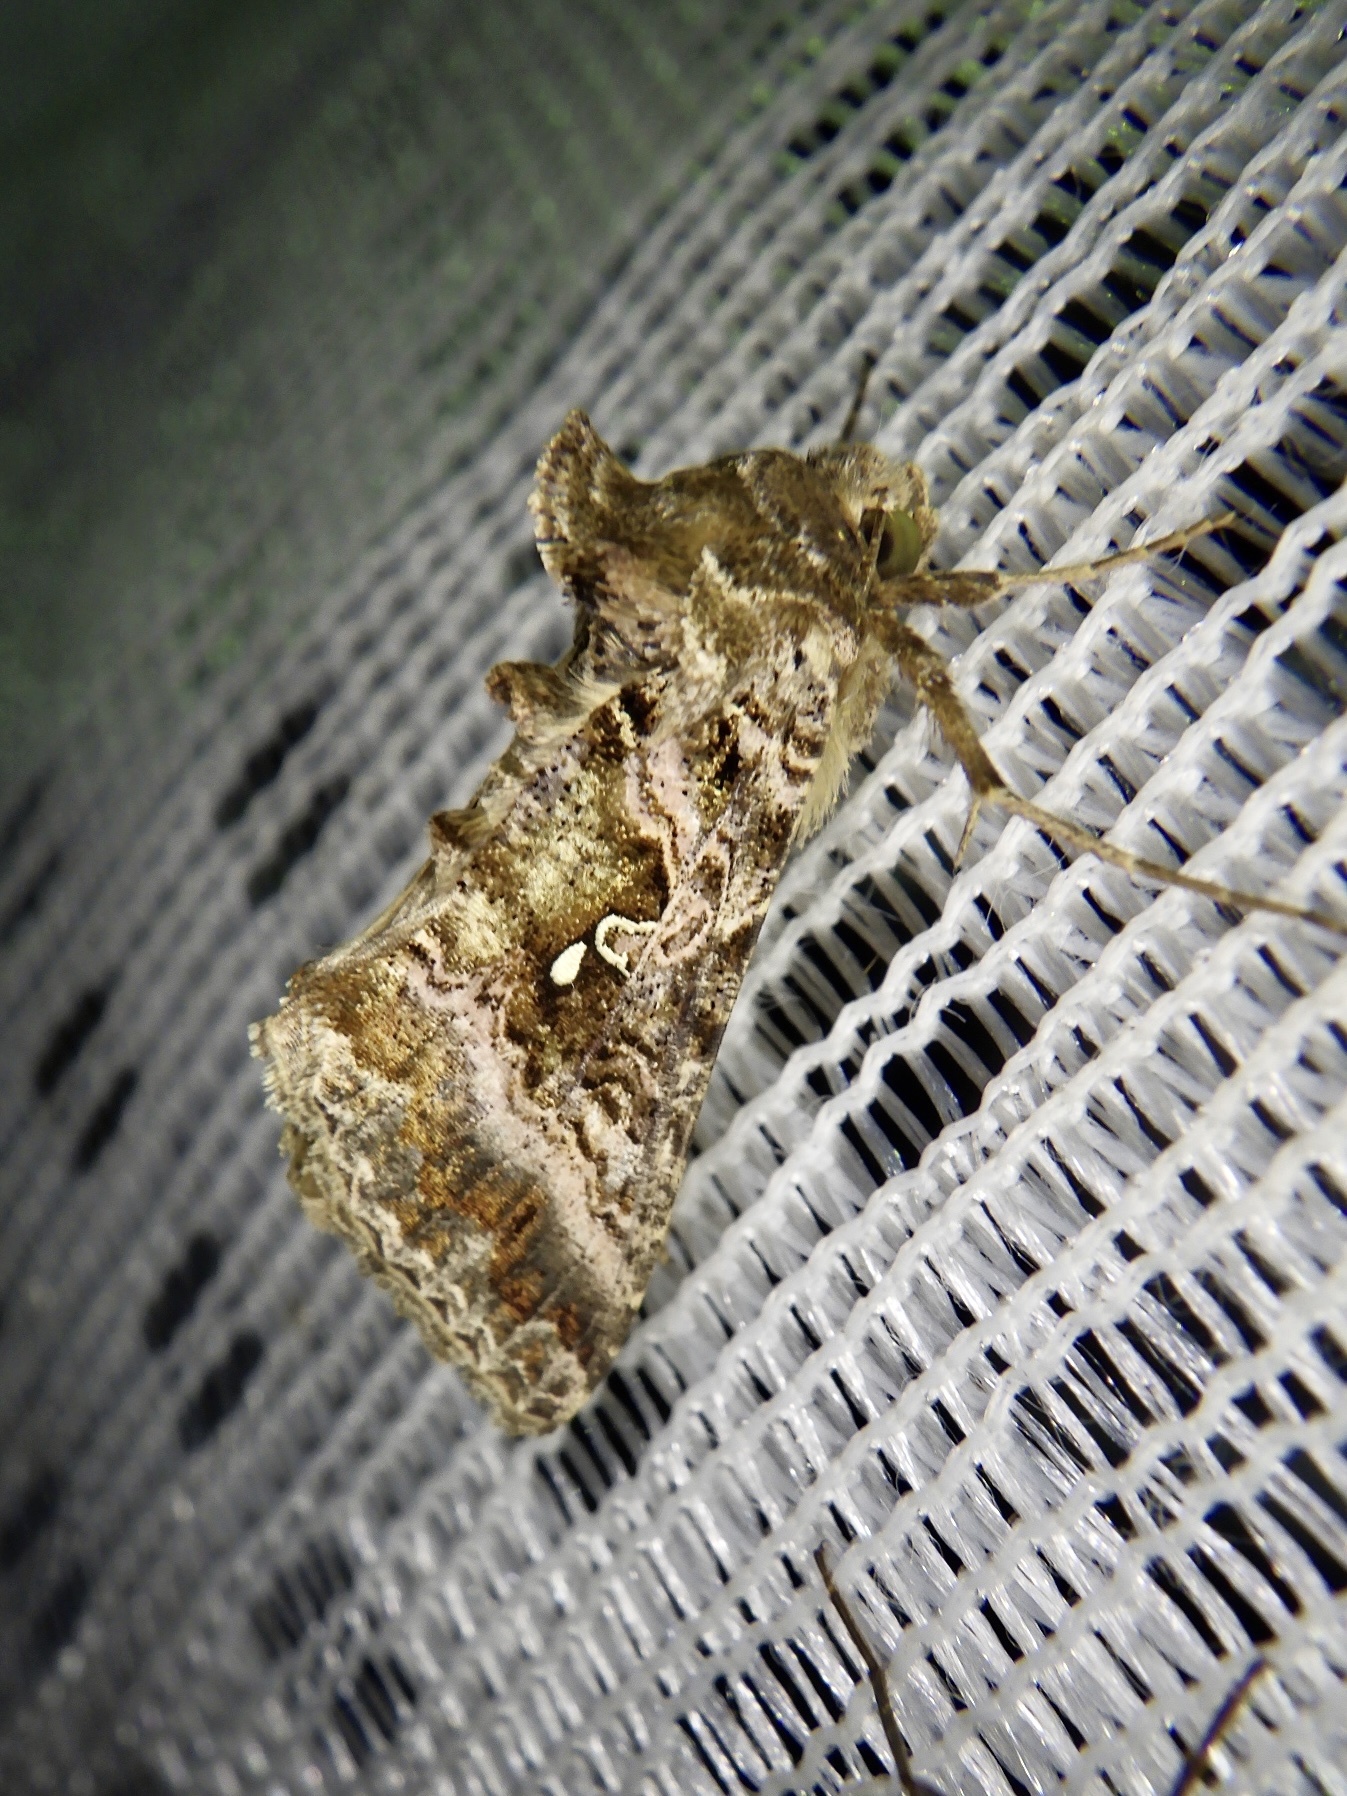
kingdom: Animalia
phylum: Arthropoda
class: Insecta
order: Lepidoptera
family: Noctuidae
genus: Ctenoplusia
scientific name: Ctenoplusia ichinosei
